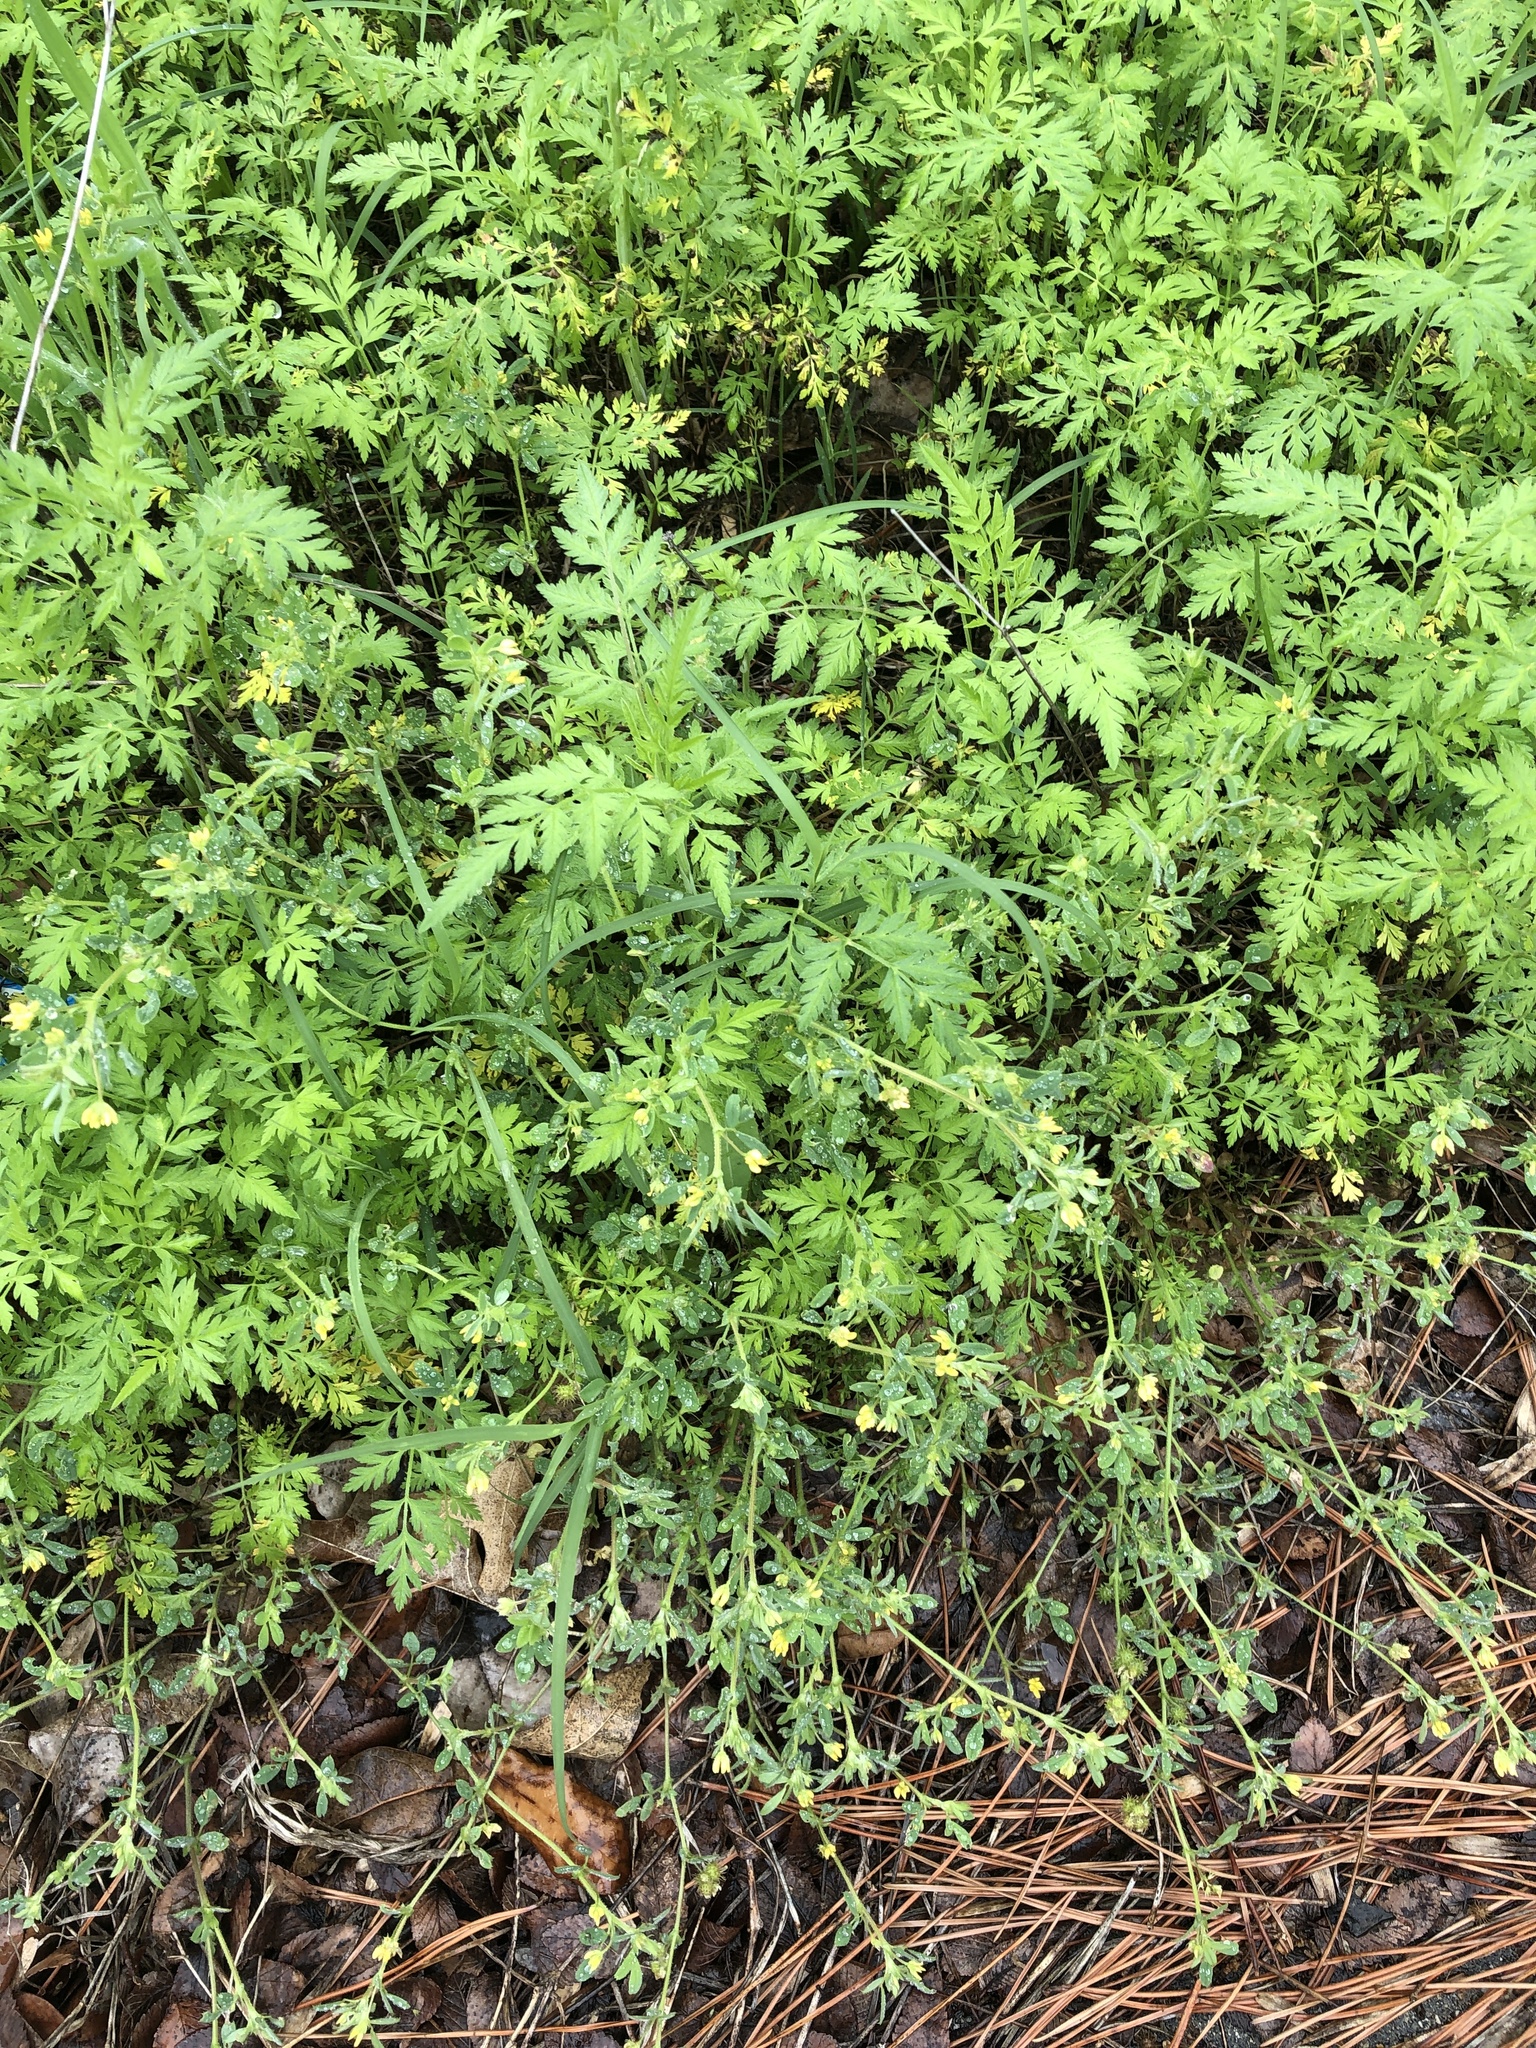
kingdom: Plantae
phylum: Tracheophyta
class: Magnoliopsida
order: Fabales
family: Fabaceae
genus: Medicago
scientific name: Medicago minima
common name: Little bur-clover
